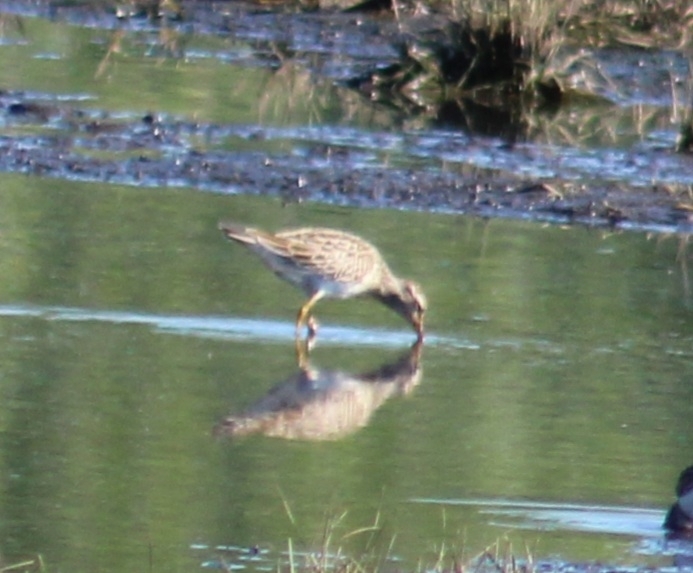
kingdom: Animalia
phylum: Chordata
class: Aves
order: Charadriiformes
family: Scolopacidae
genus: Calidris
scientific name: Calidris melanotos
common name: Pectoral sandpiper
